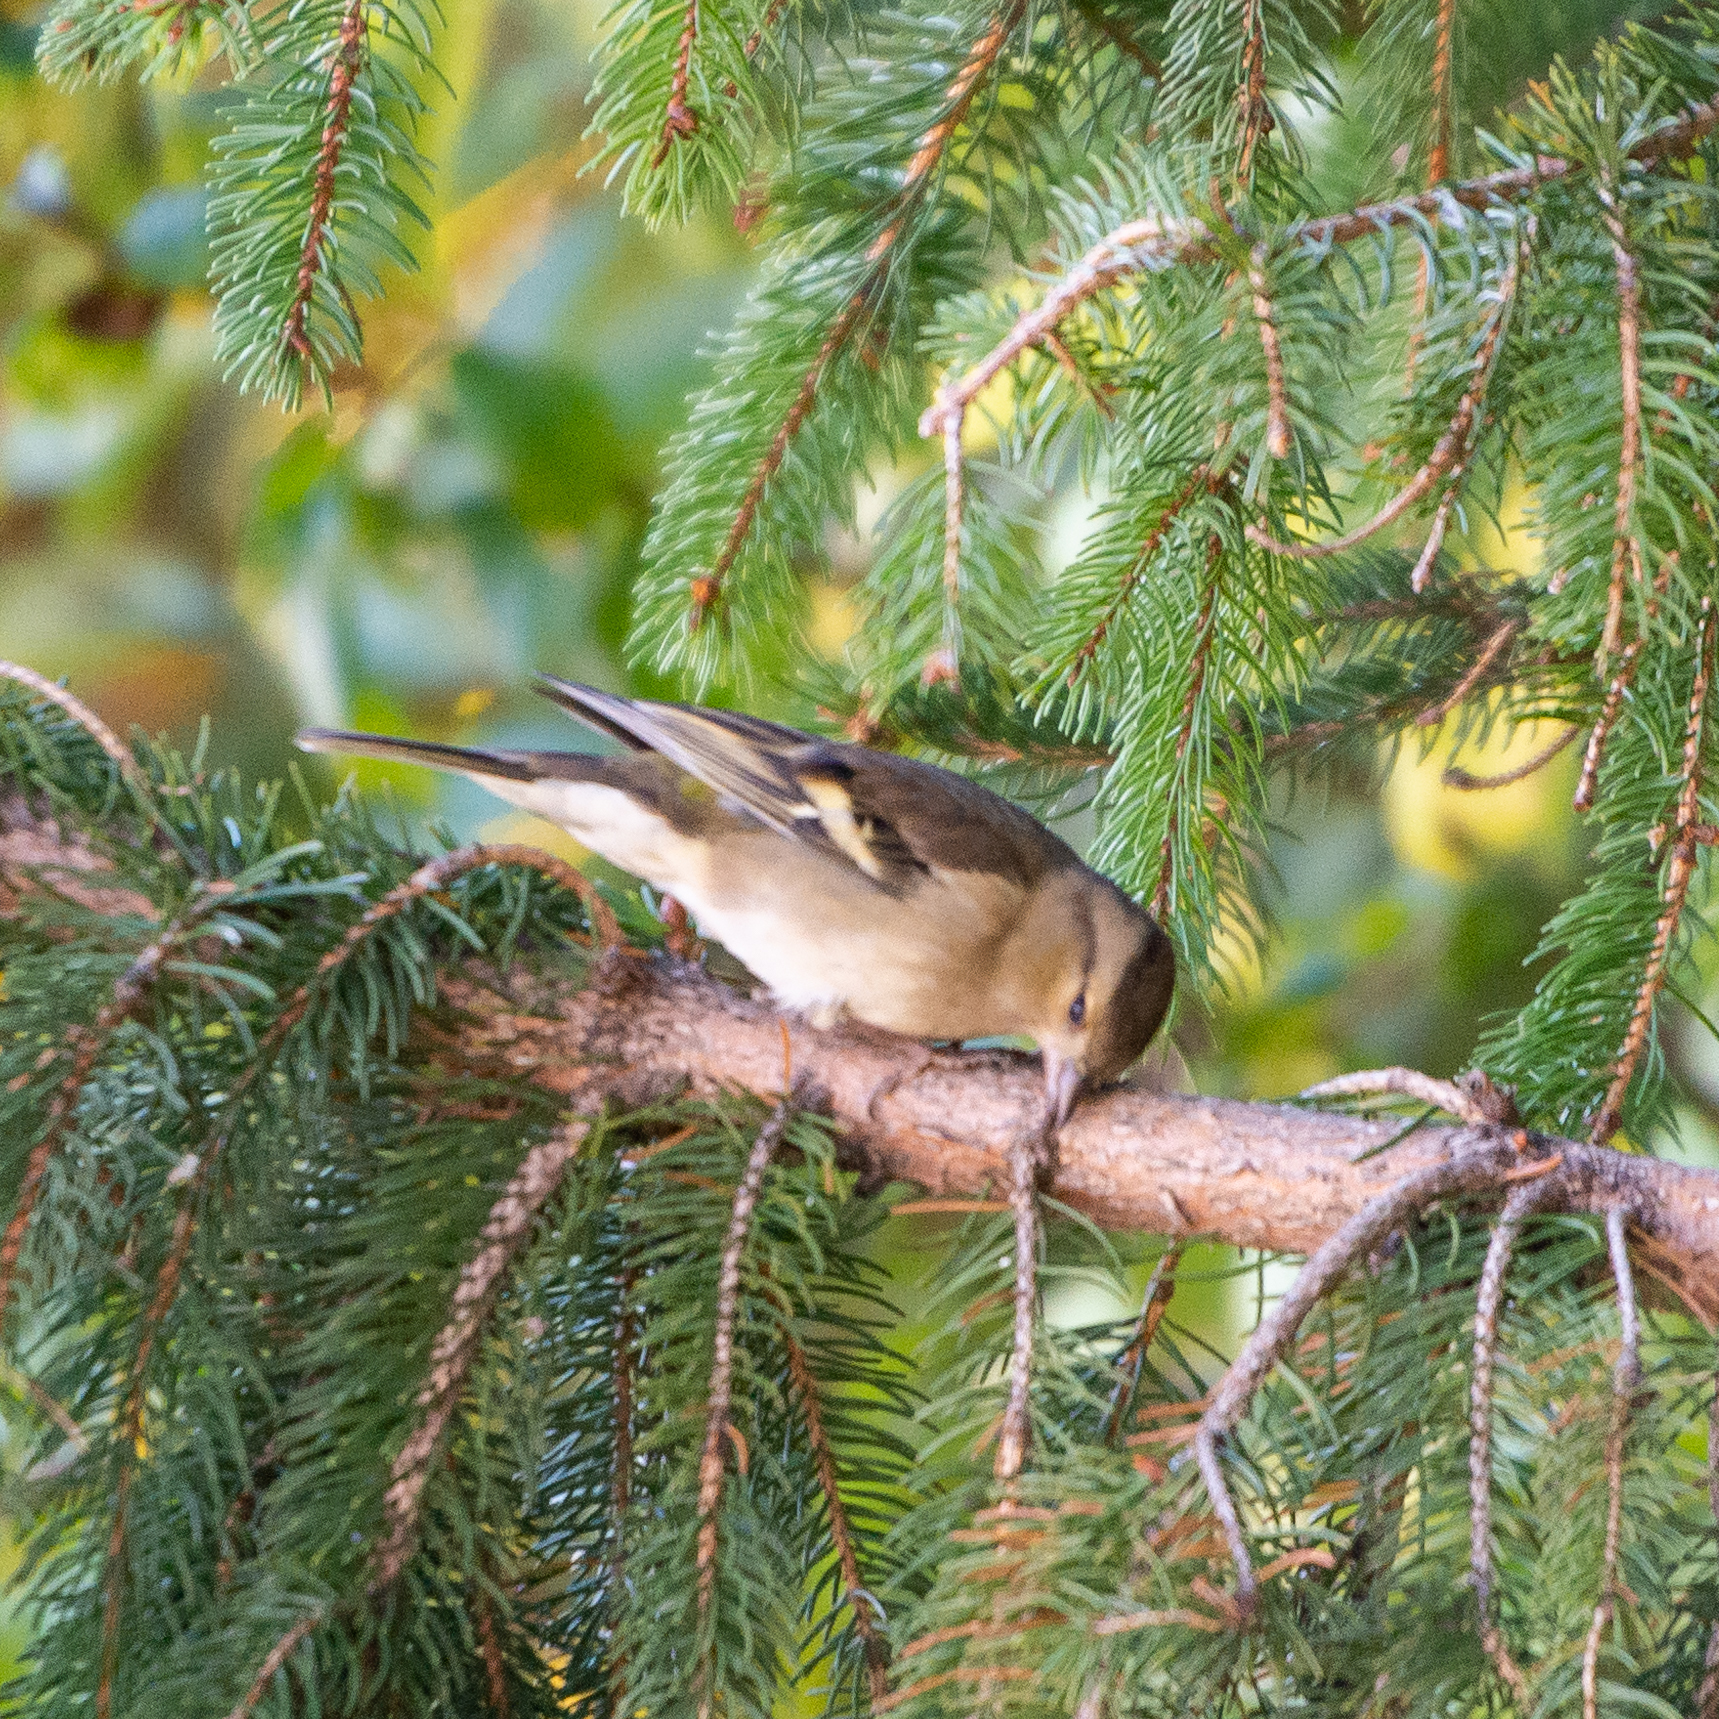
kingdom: Animalia
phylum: Chordata
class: Aves
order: Passeriformes
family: Fringillidae
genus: Fringilla
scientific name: Fringilla coelebs
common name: Common chaffinch
